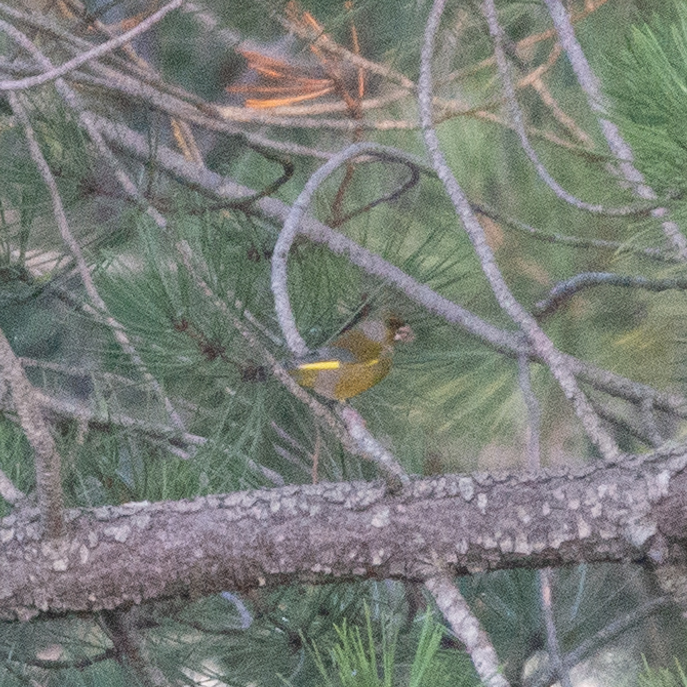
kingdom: Plantae
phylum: Tracheophyta
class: Liliopsida
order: Poales
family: Poaceae
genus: Chloris
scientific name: Chloris chloris
